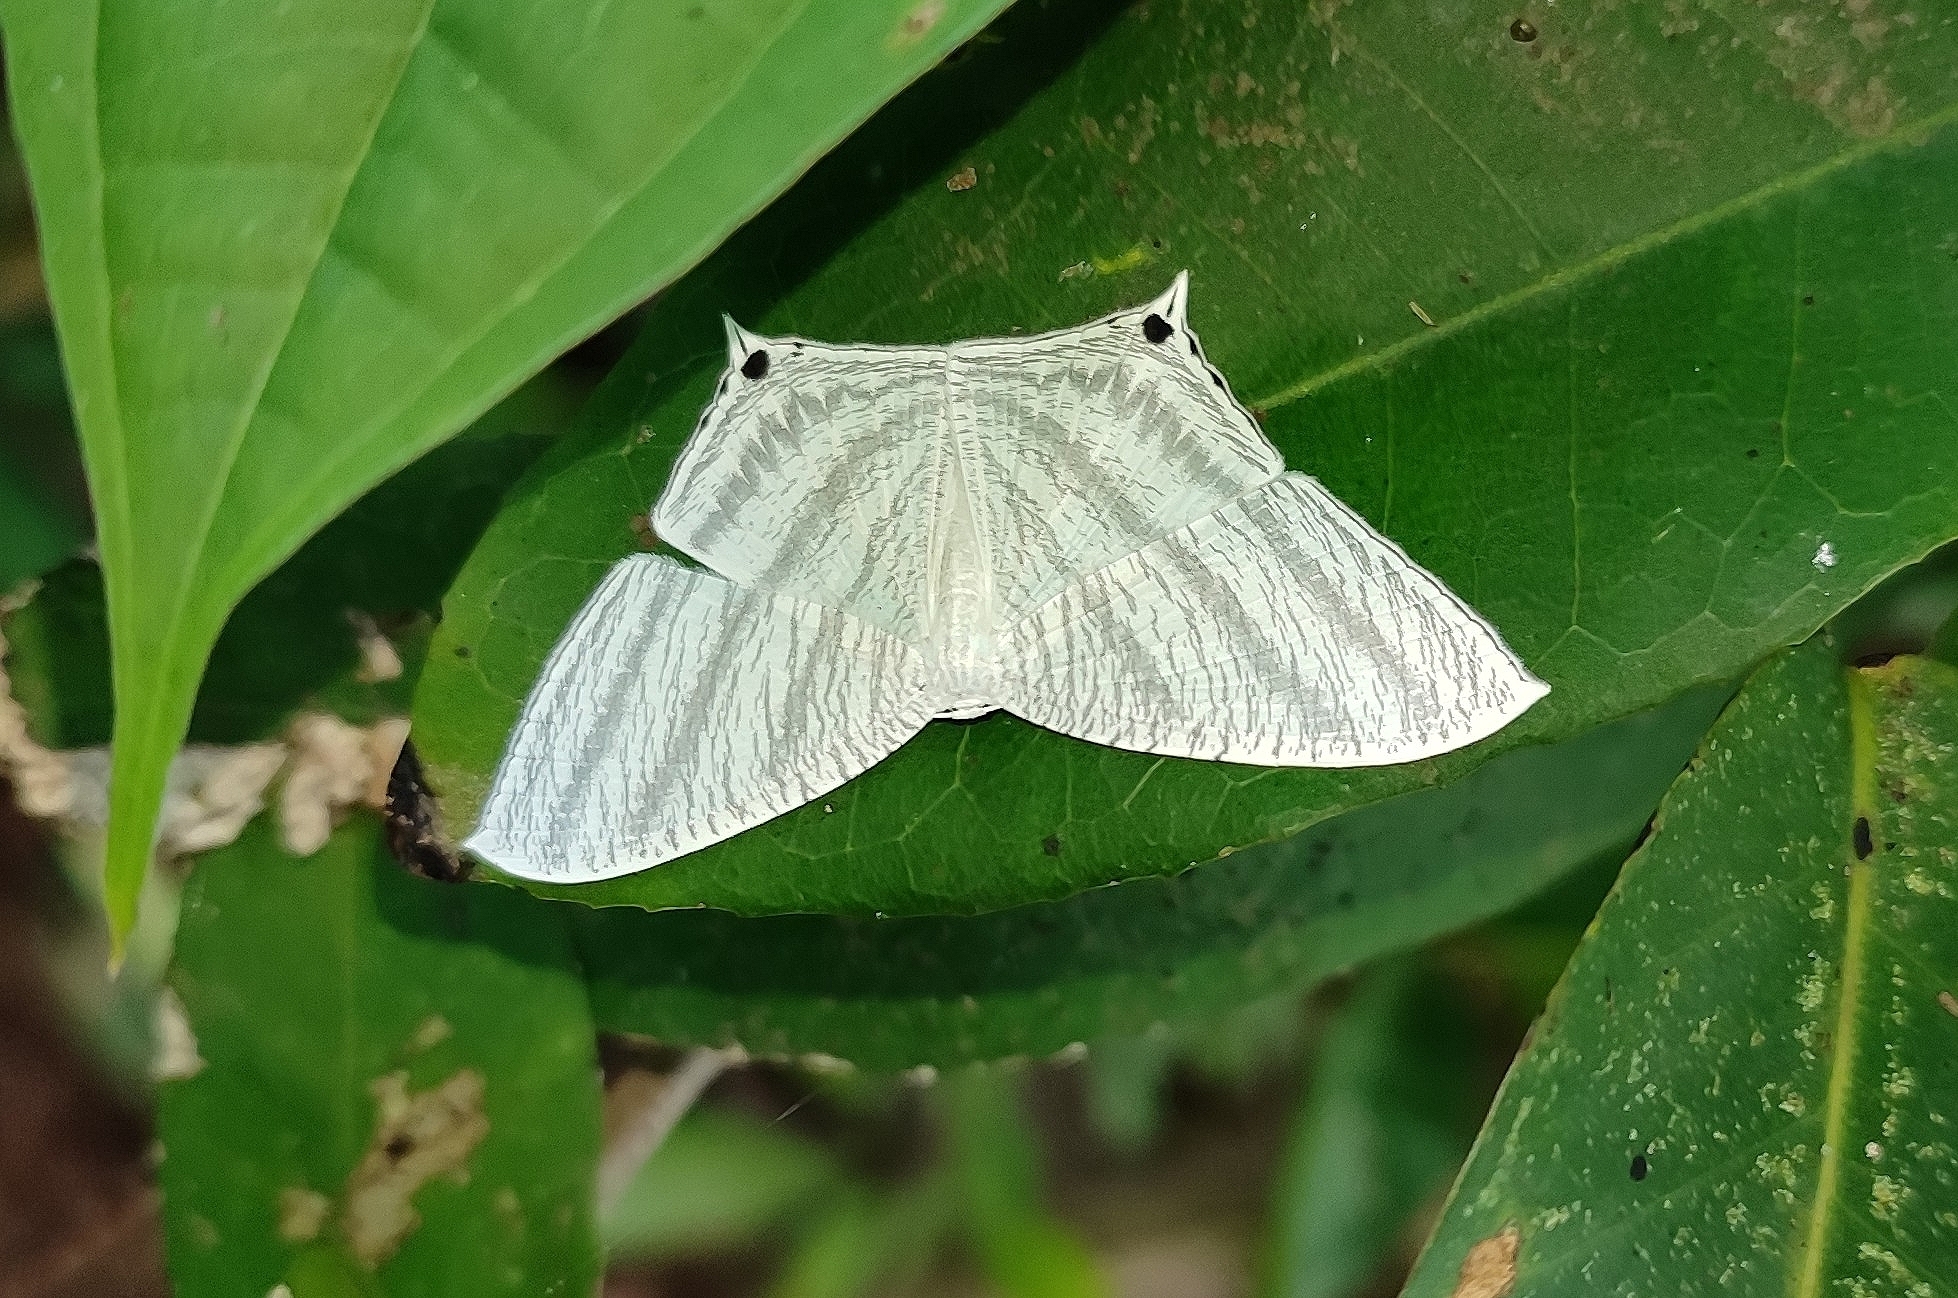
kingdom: Animalia
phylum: Arthropoda
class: Insecta
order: Lepidoptera
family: Uraniidae
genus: Micronia
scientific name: Micronia aculeata
